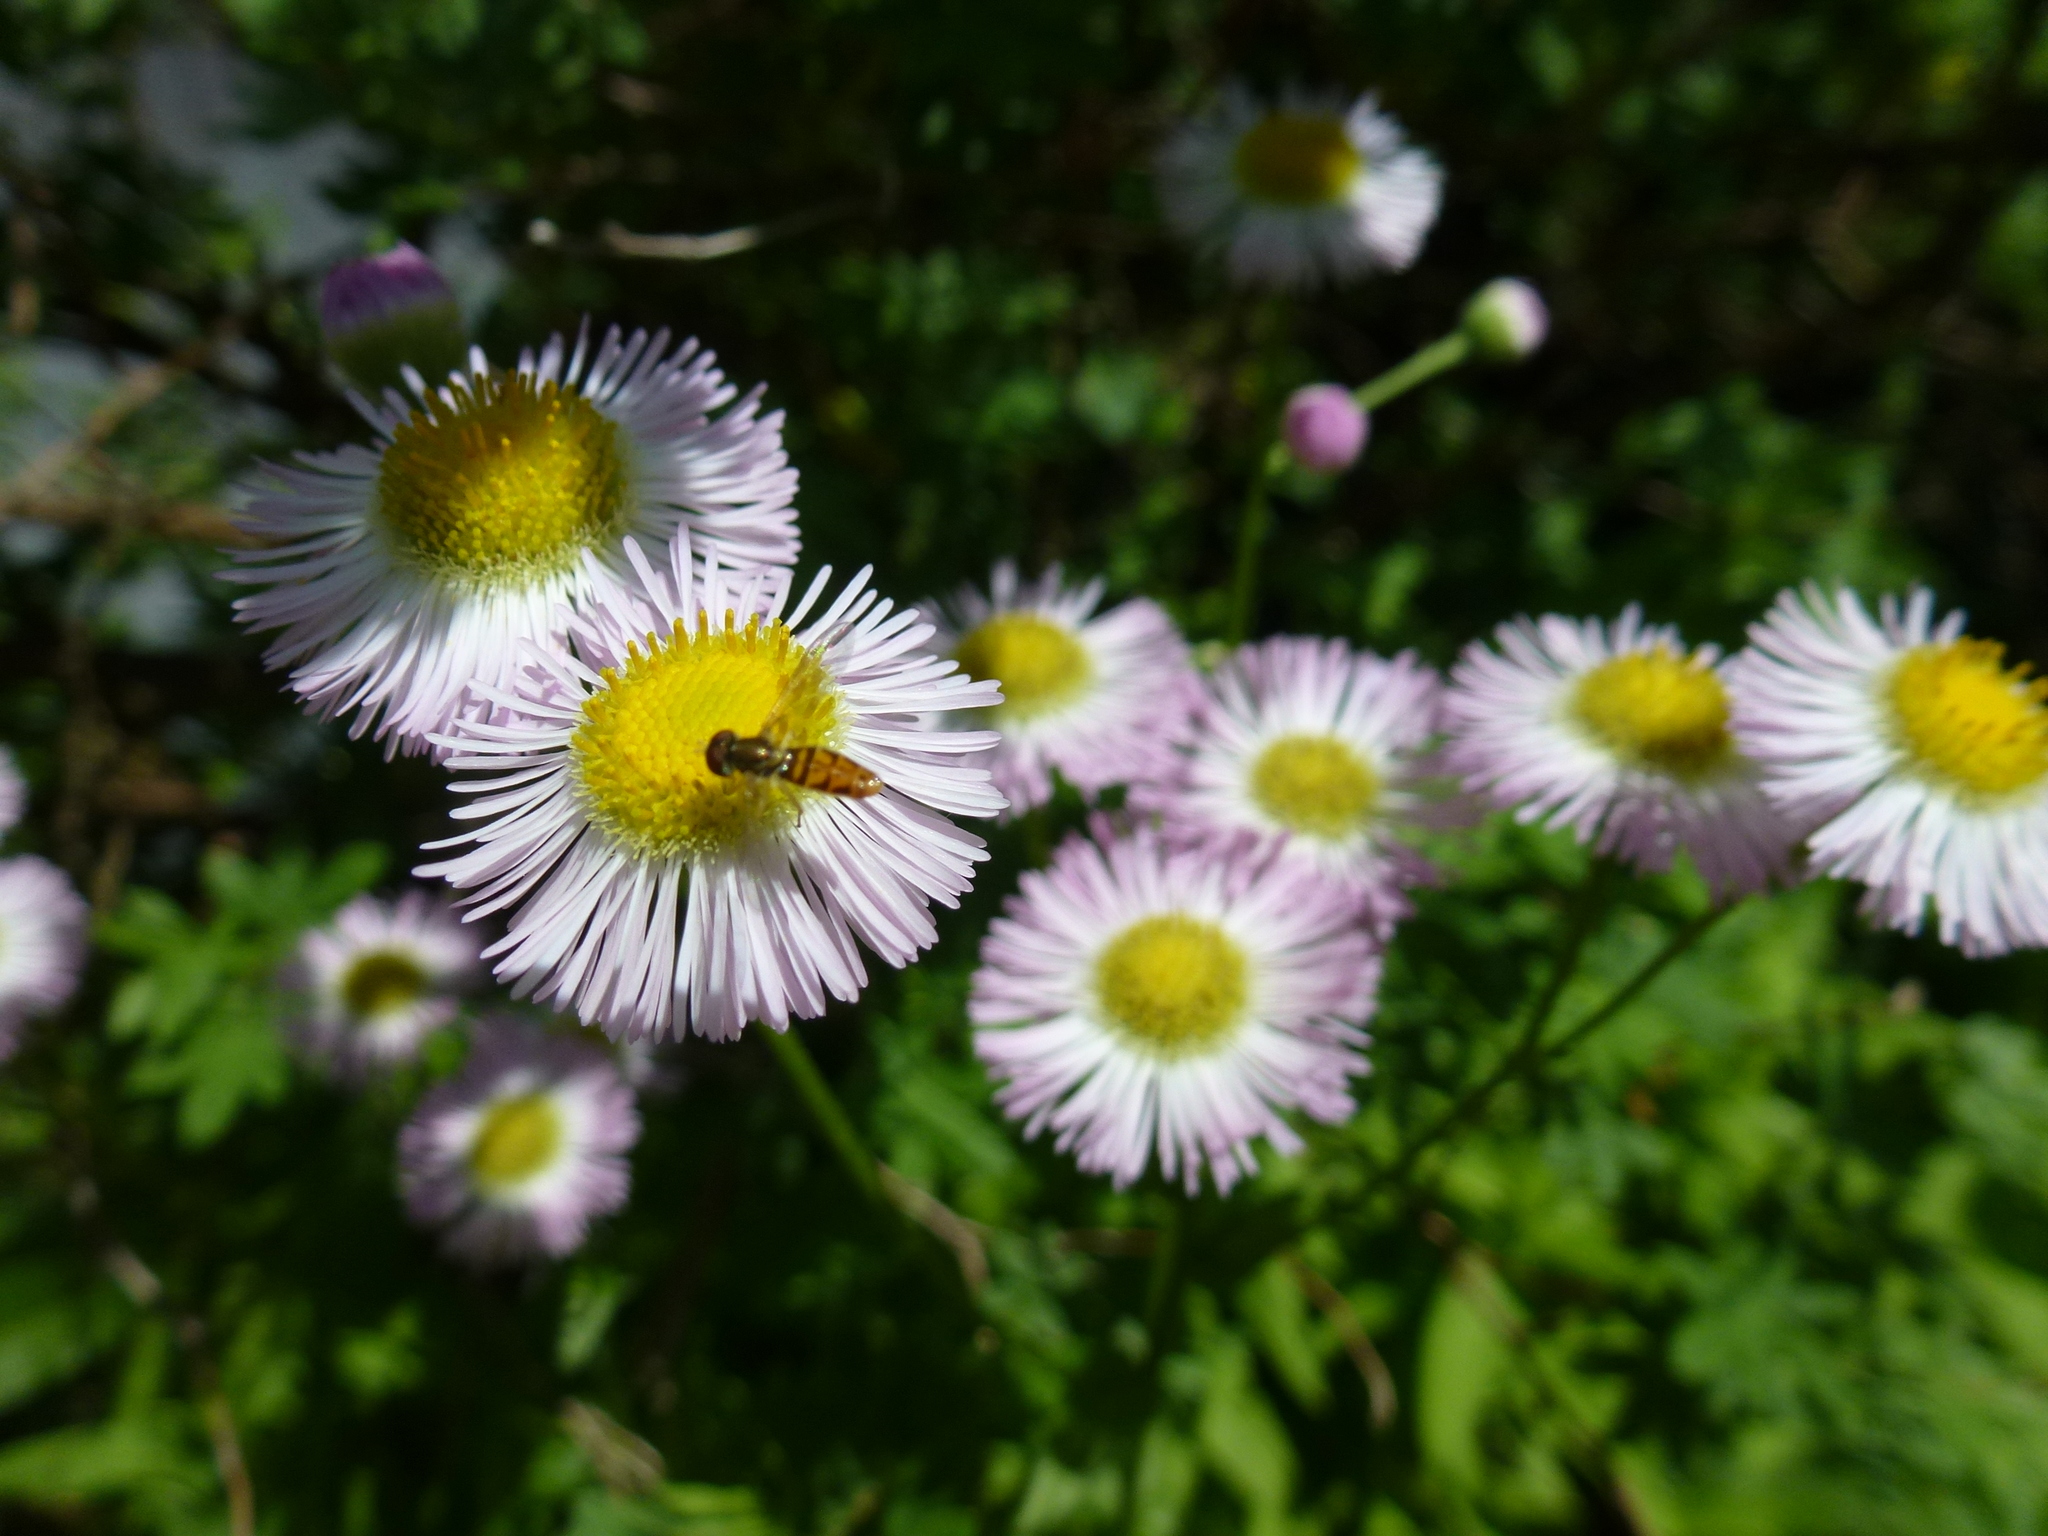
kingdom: Animalia
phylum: Arthropoda
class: Insecta
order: Diptera
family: Syrphidae
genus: Toxomerus
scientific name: Toxomerus marginatus
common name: Syrphid fly
